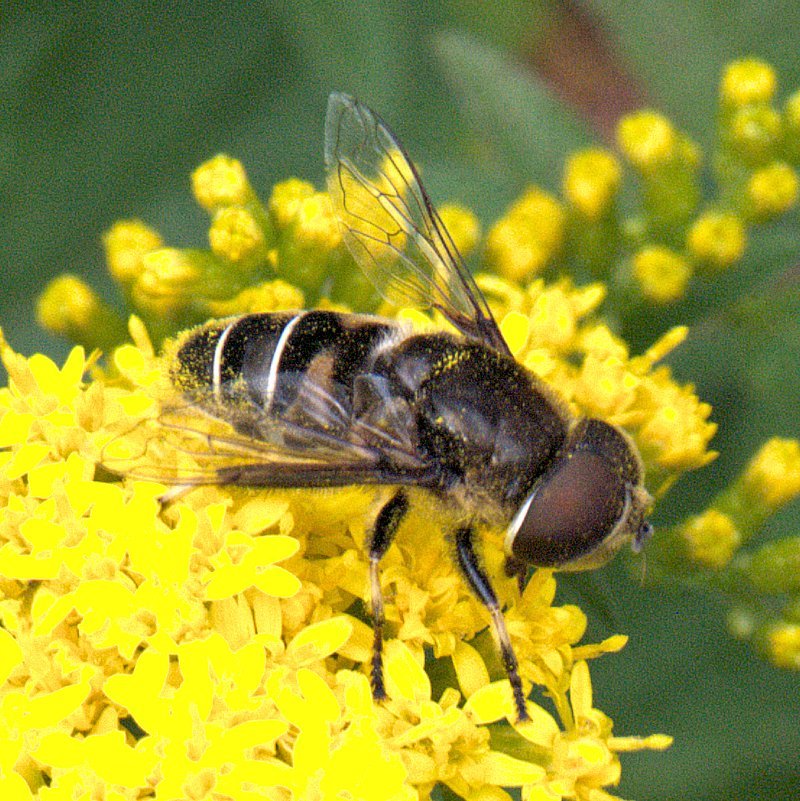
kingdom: Animalia
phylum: Arthropoda
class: Insecta
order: Diptera
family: Syrphidae
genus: Eristalis
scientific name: Eristalis dimidiata
